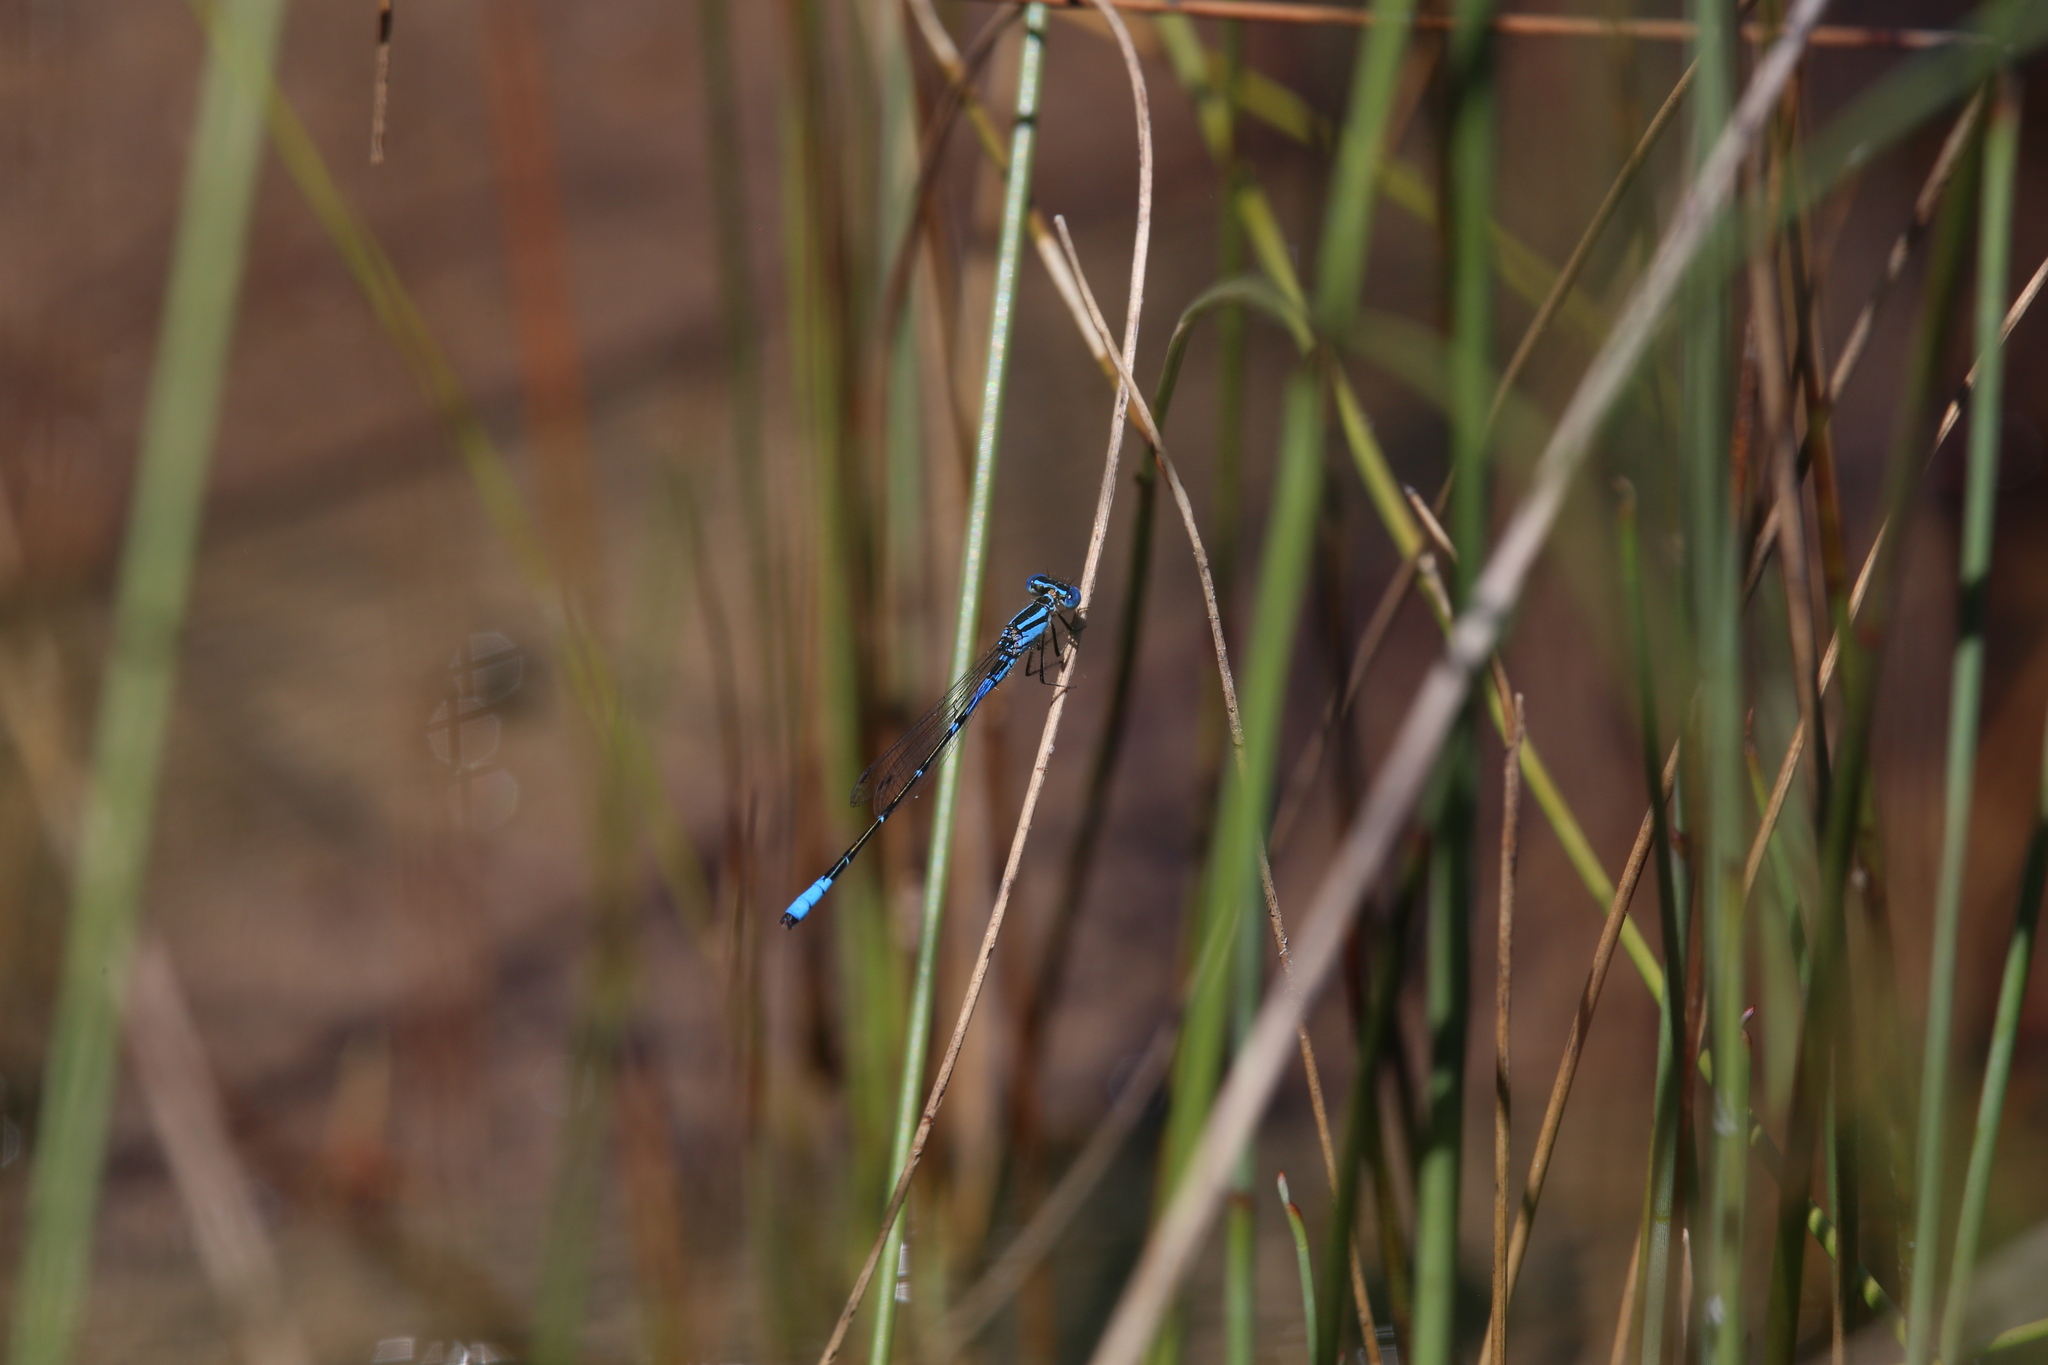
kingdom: Animalia
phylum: Arthropoda
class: Insecta
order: Odonata
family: Coenagrionidae
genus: Austroagrion
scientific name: Austroagrion cyane
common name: South-western billabongfly
